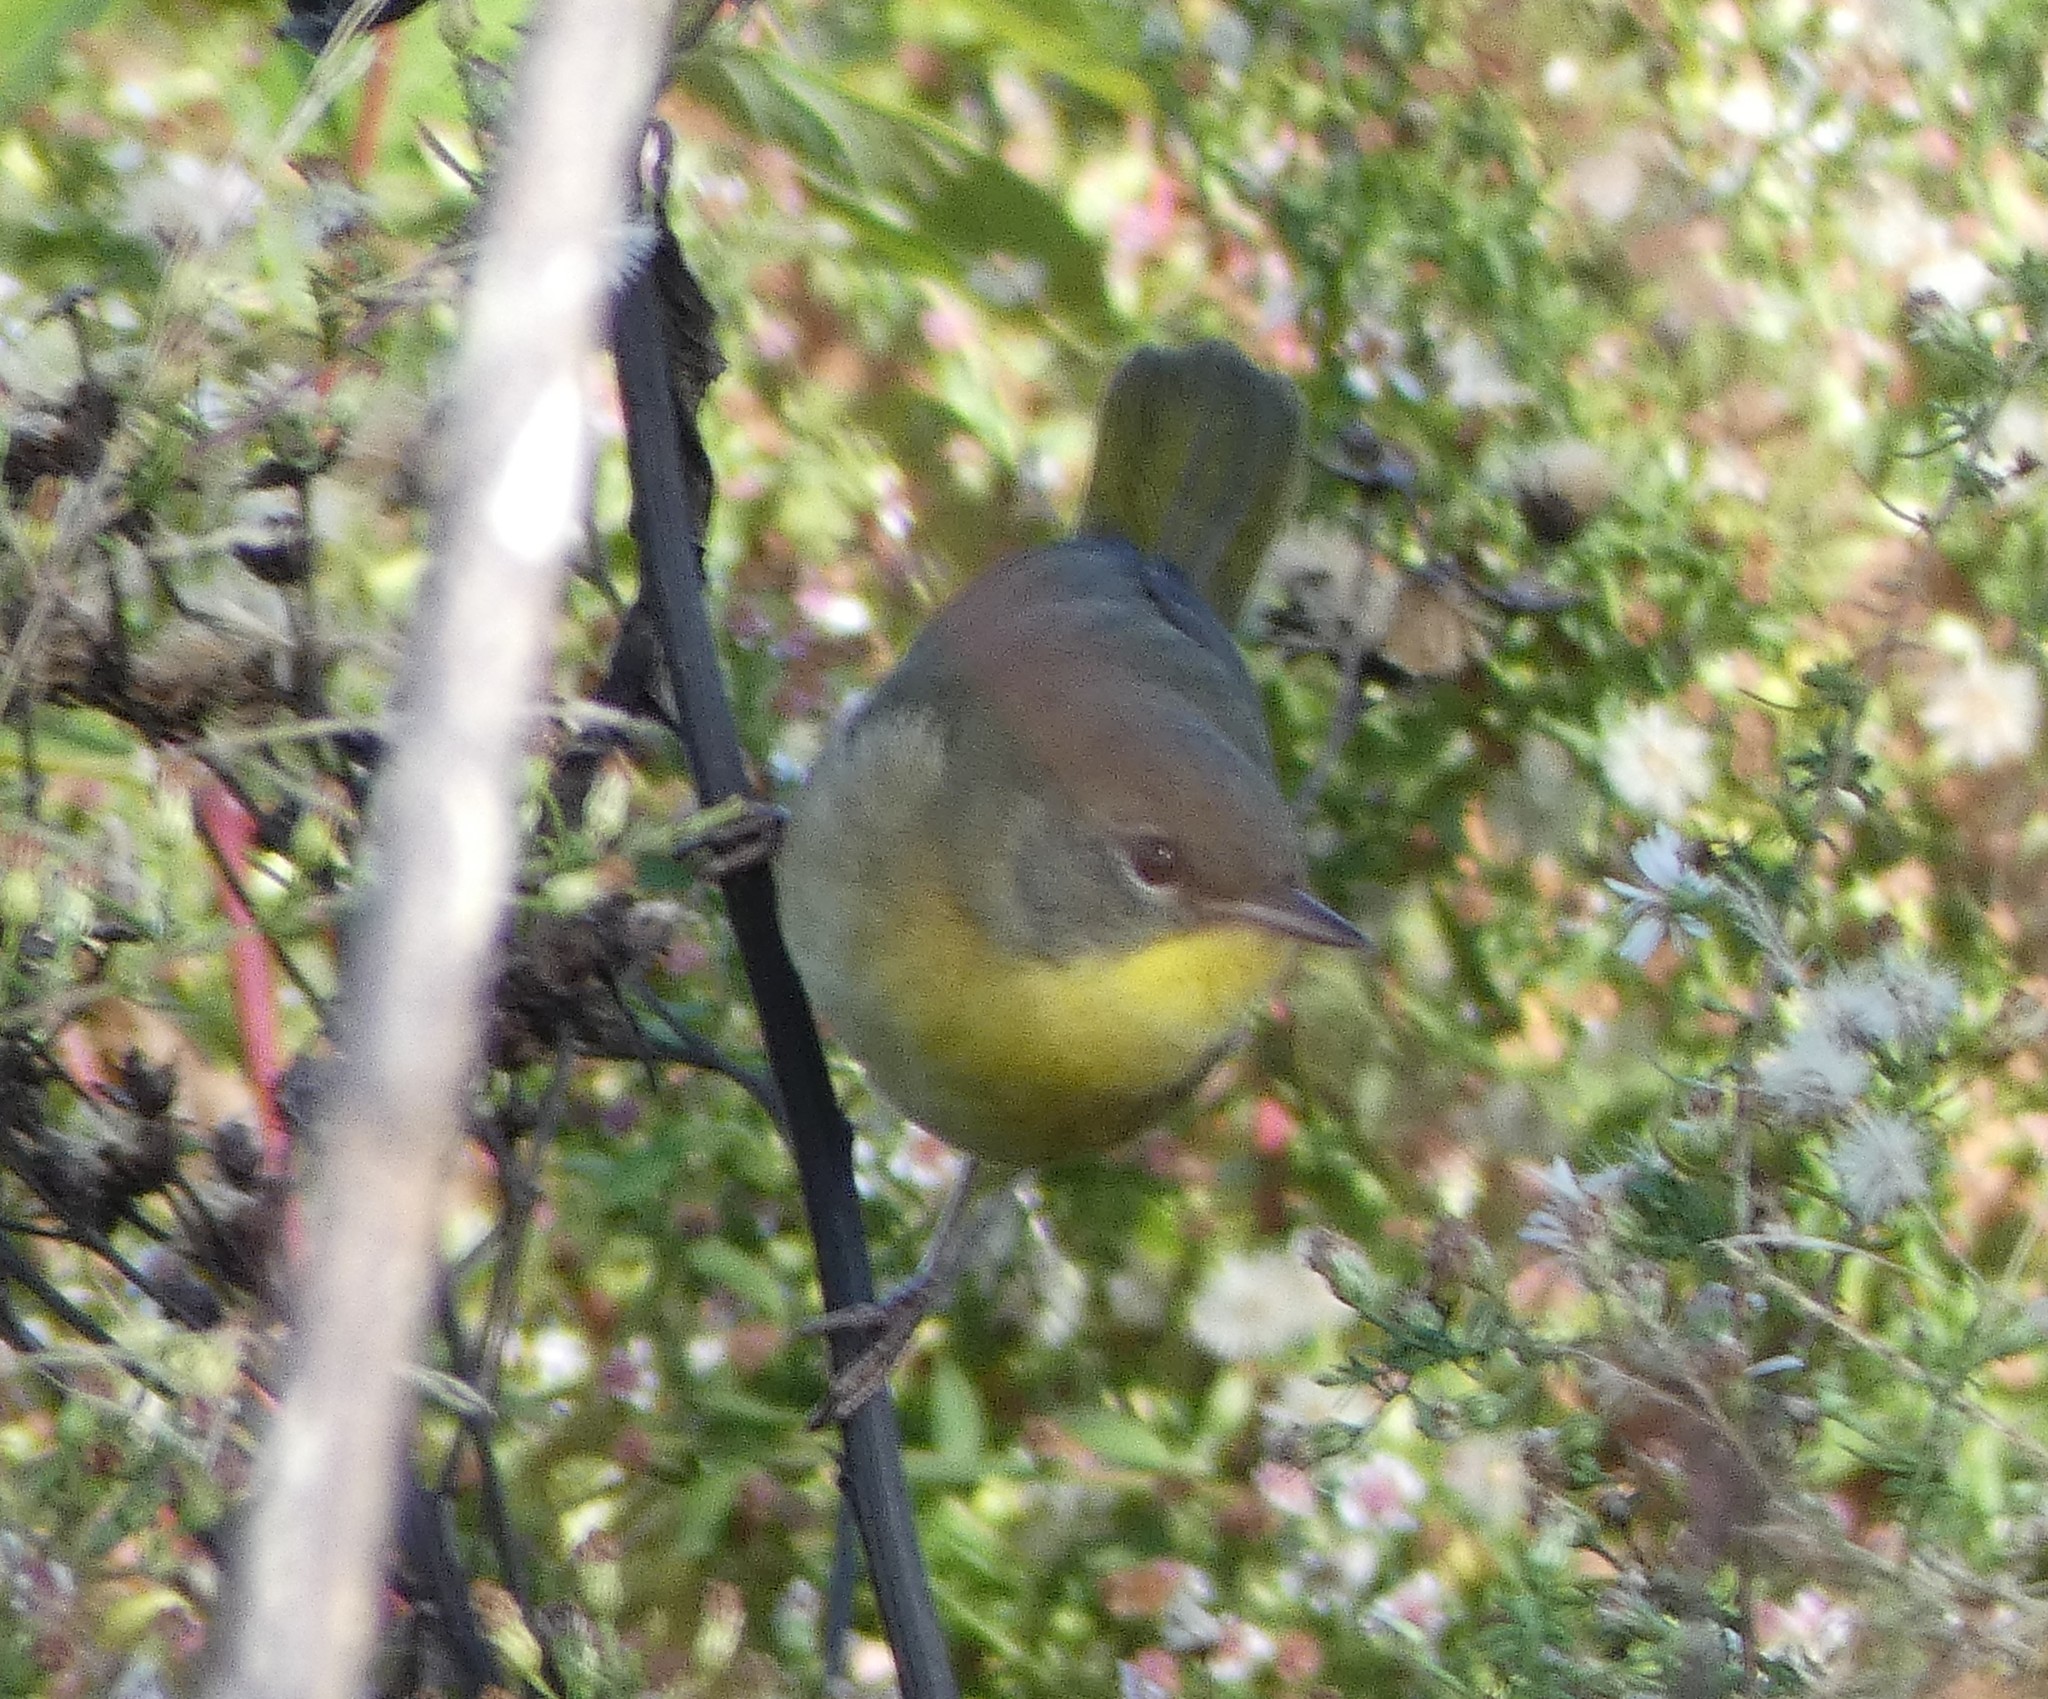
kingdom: Animalia
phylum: Chordata
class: Aves
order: Passeriformes
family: Parulidae
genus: Geothlypis
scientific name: Geothlypis trichas
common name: Common yellowthroat
